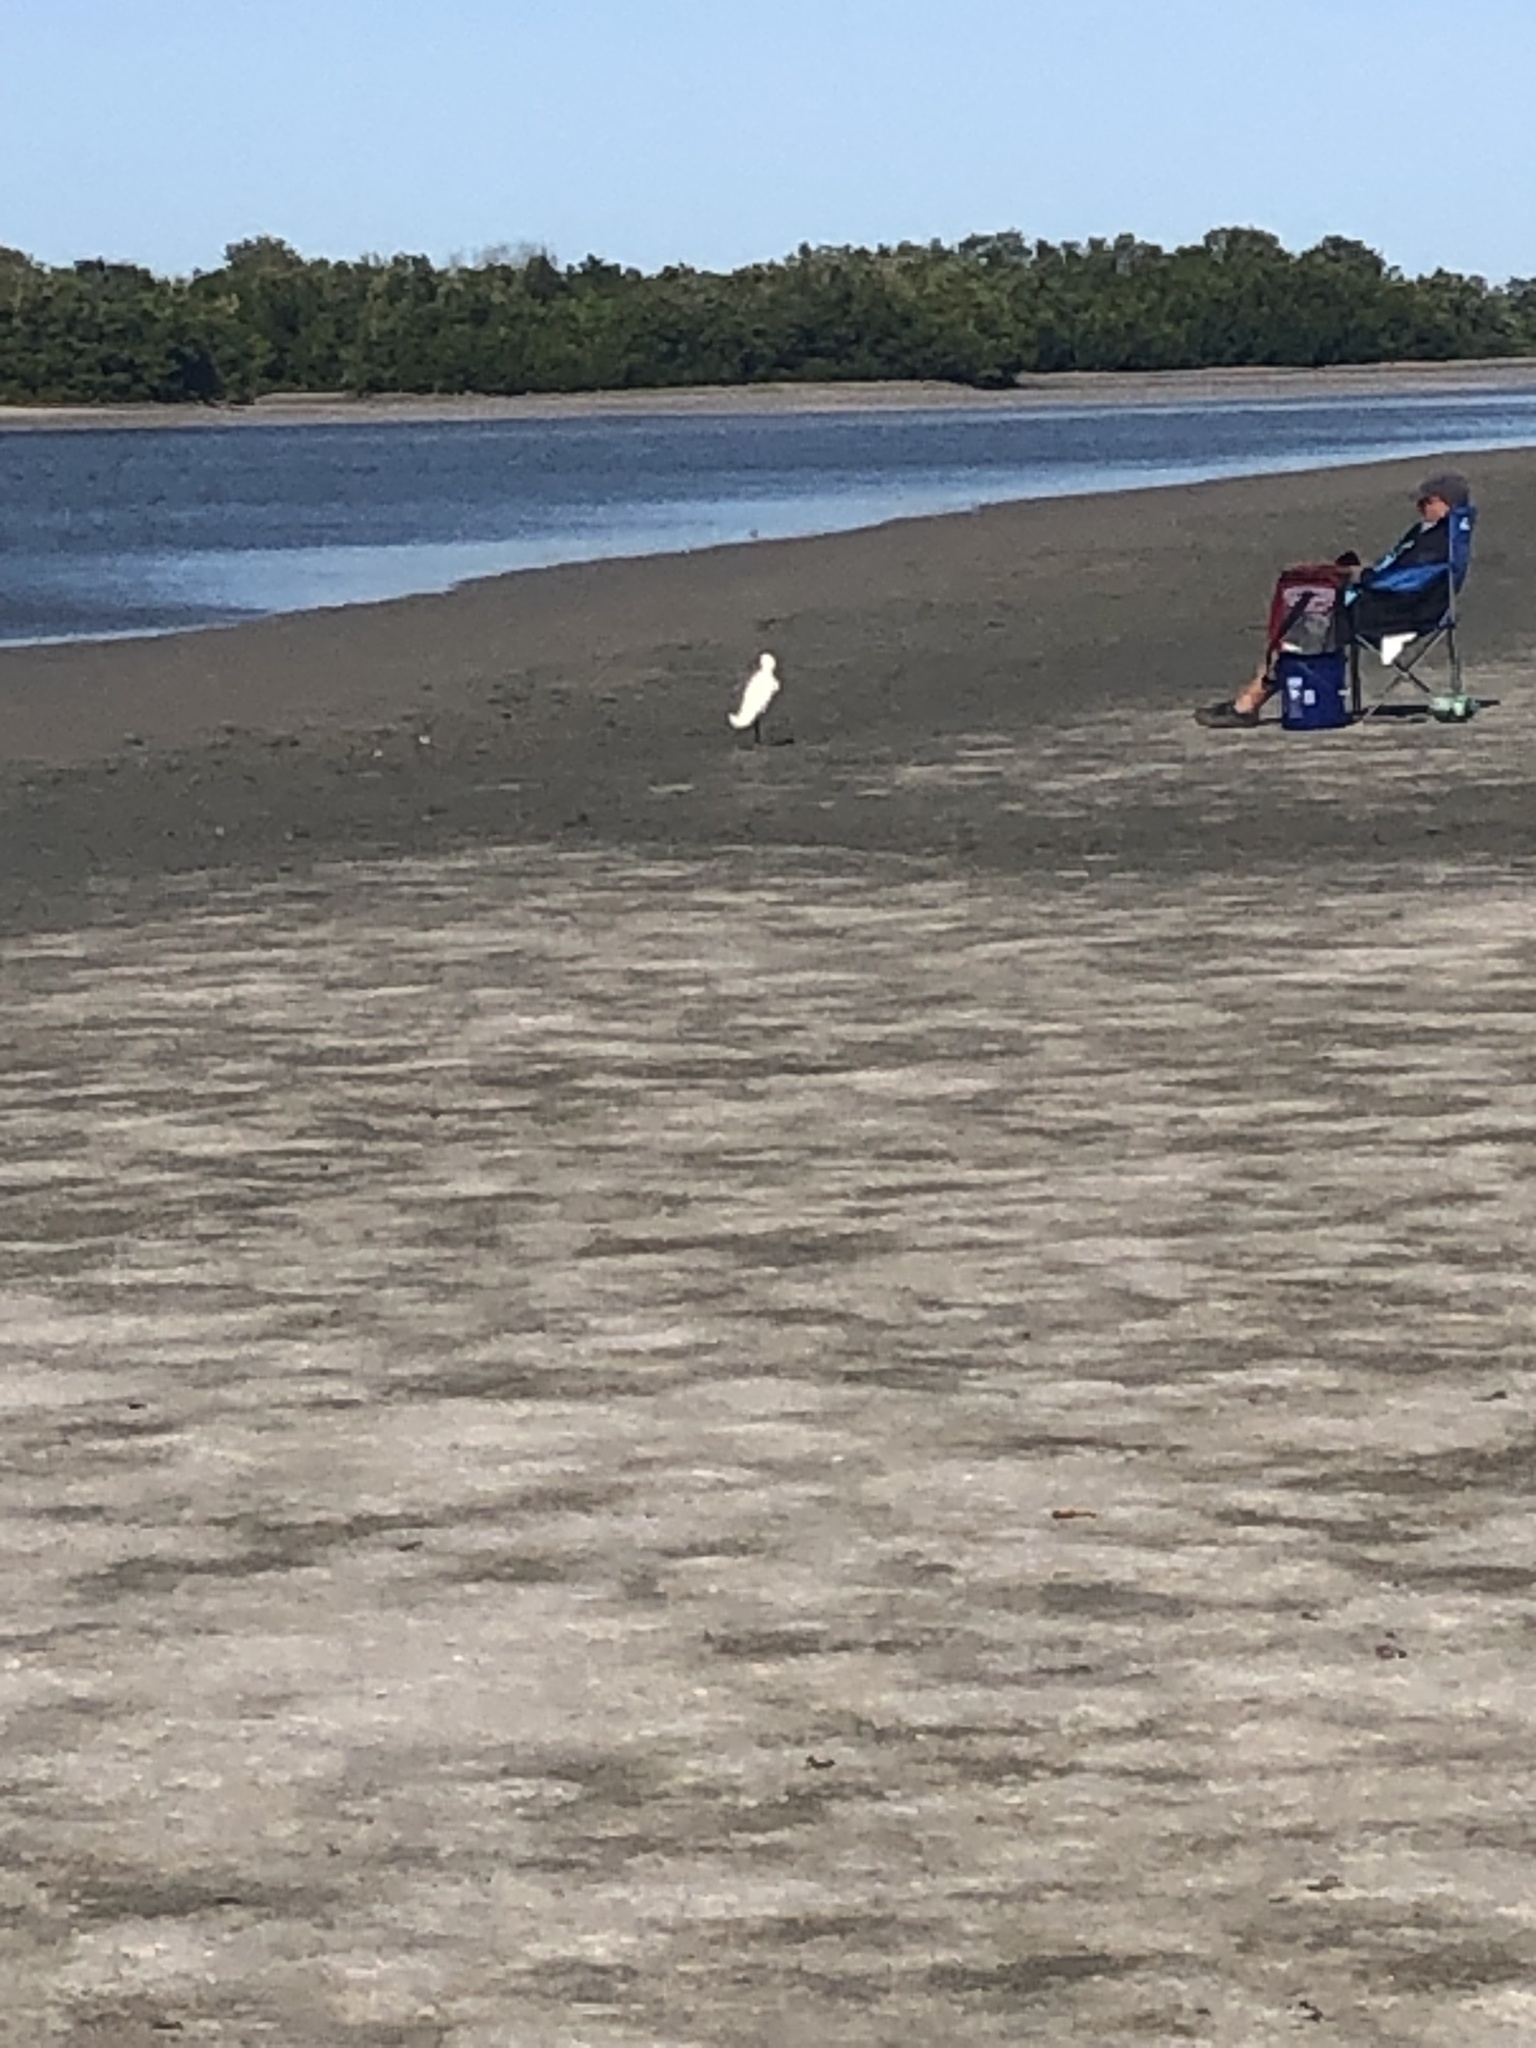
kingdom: Animalia
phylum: Chordata
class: Aves
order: Pelecaniformes
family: Ardeidae
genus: Egretta
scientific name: Egretta thula
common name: Snowy egret
